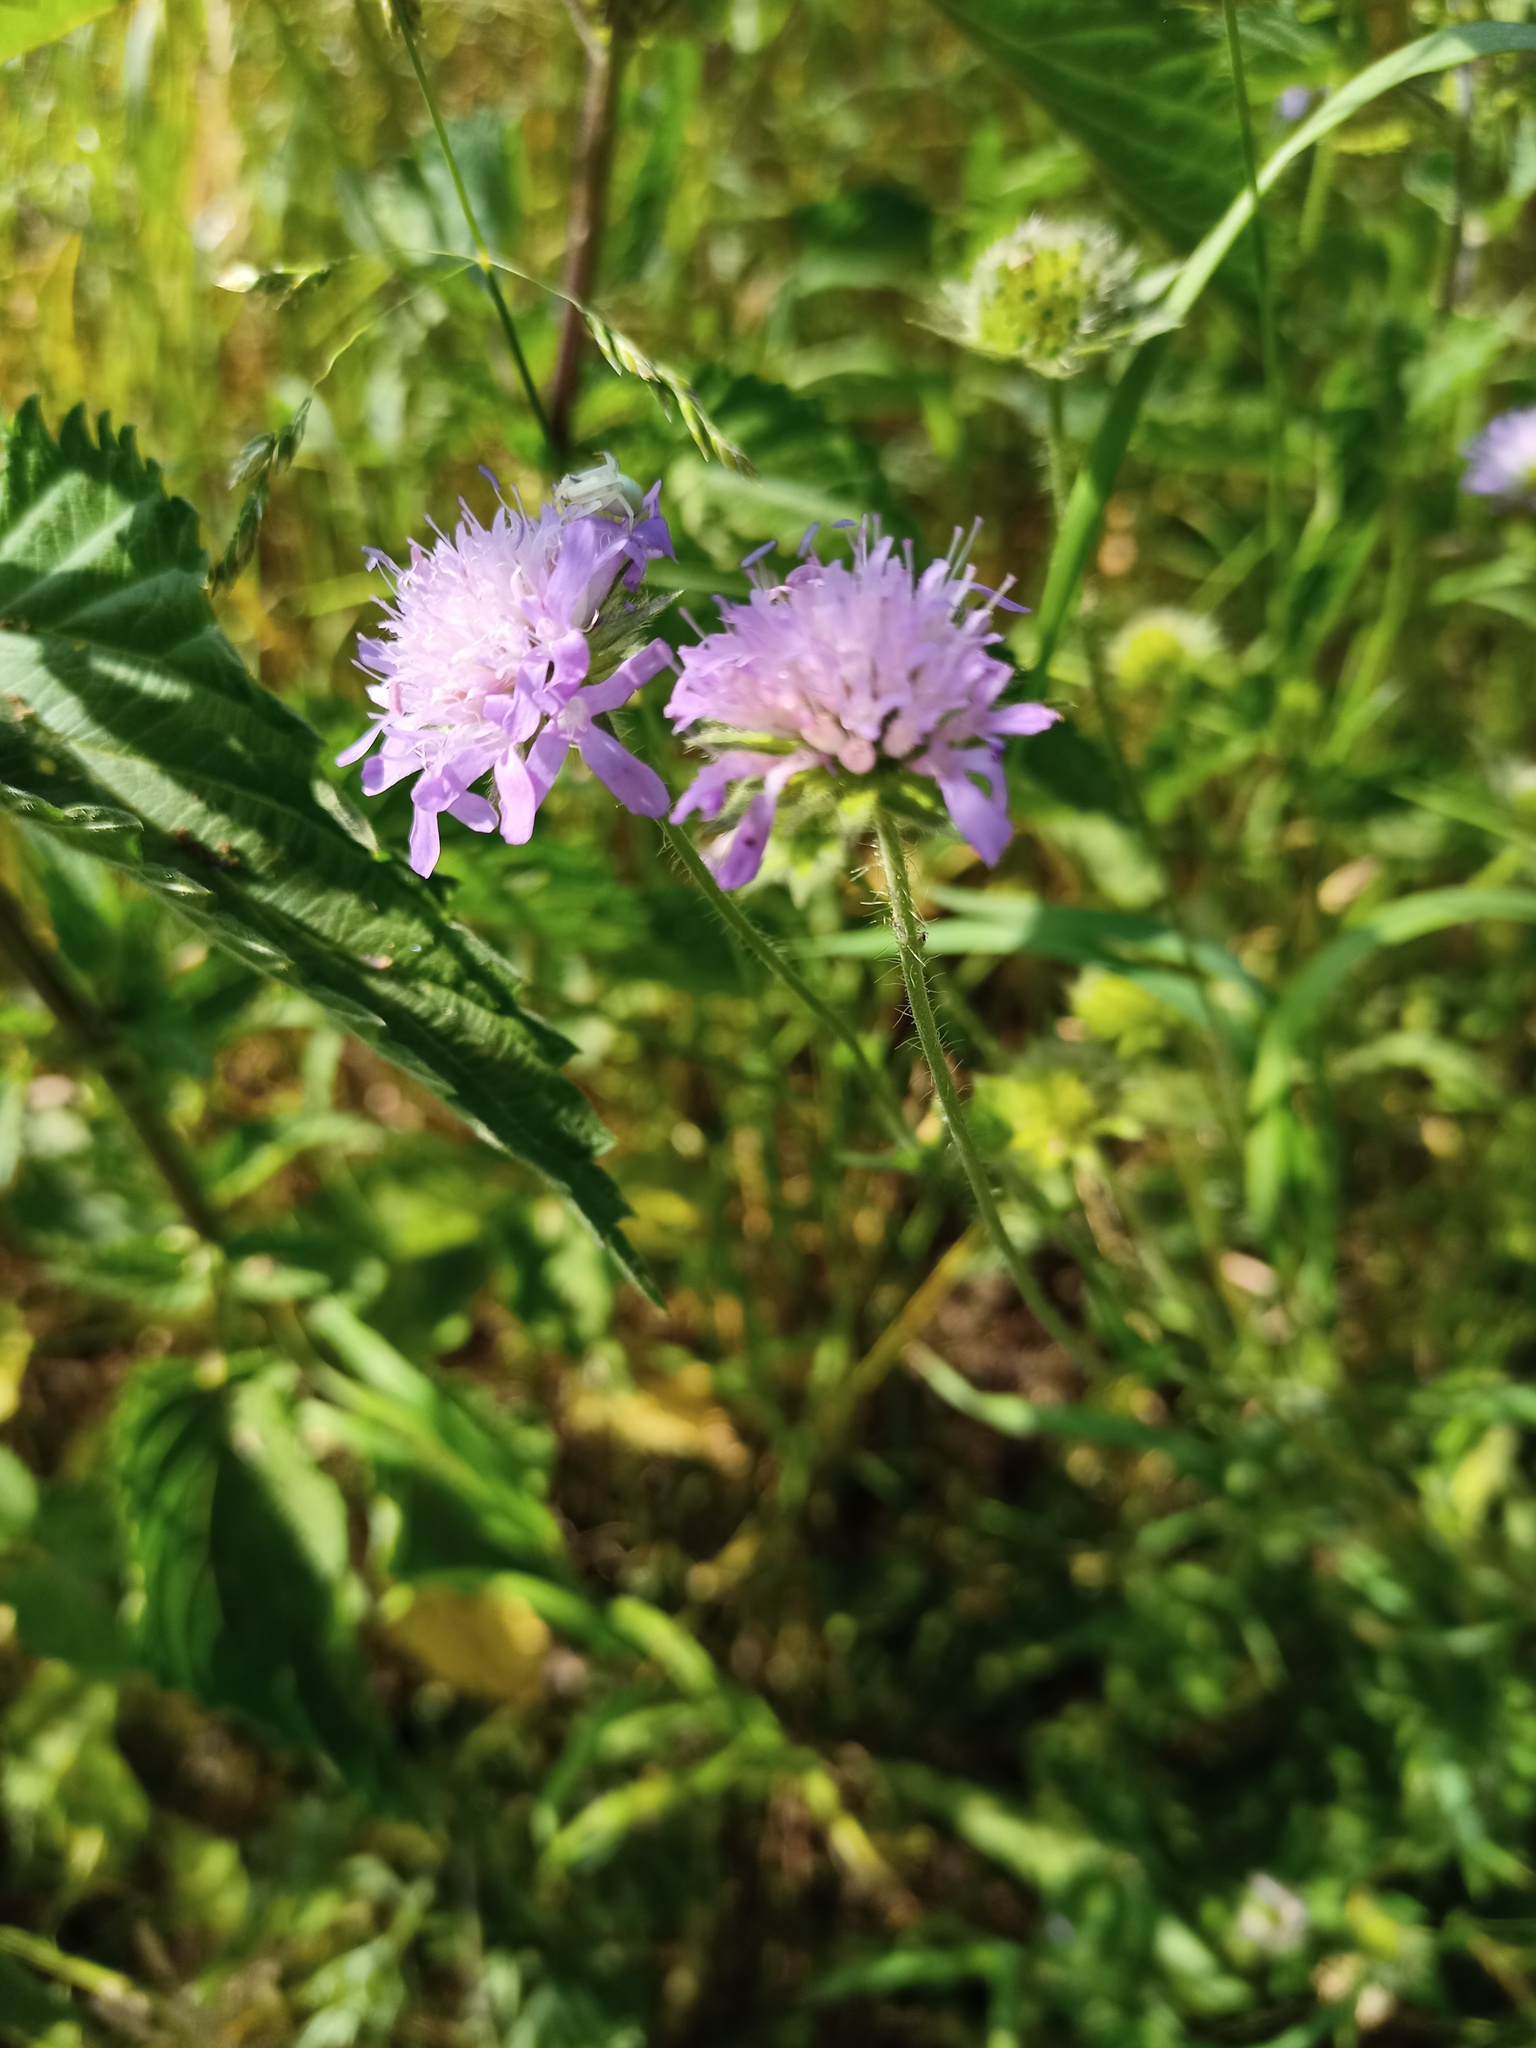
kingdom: Plantae
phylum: Tracheophyta
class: Magnoliopsida
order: Dipsacales
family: Caprifoliaceae
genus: Knautia
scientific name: Knautia arvensis
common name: Field scabiosa
